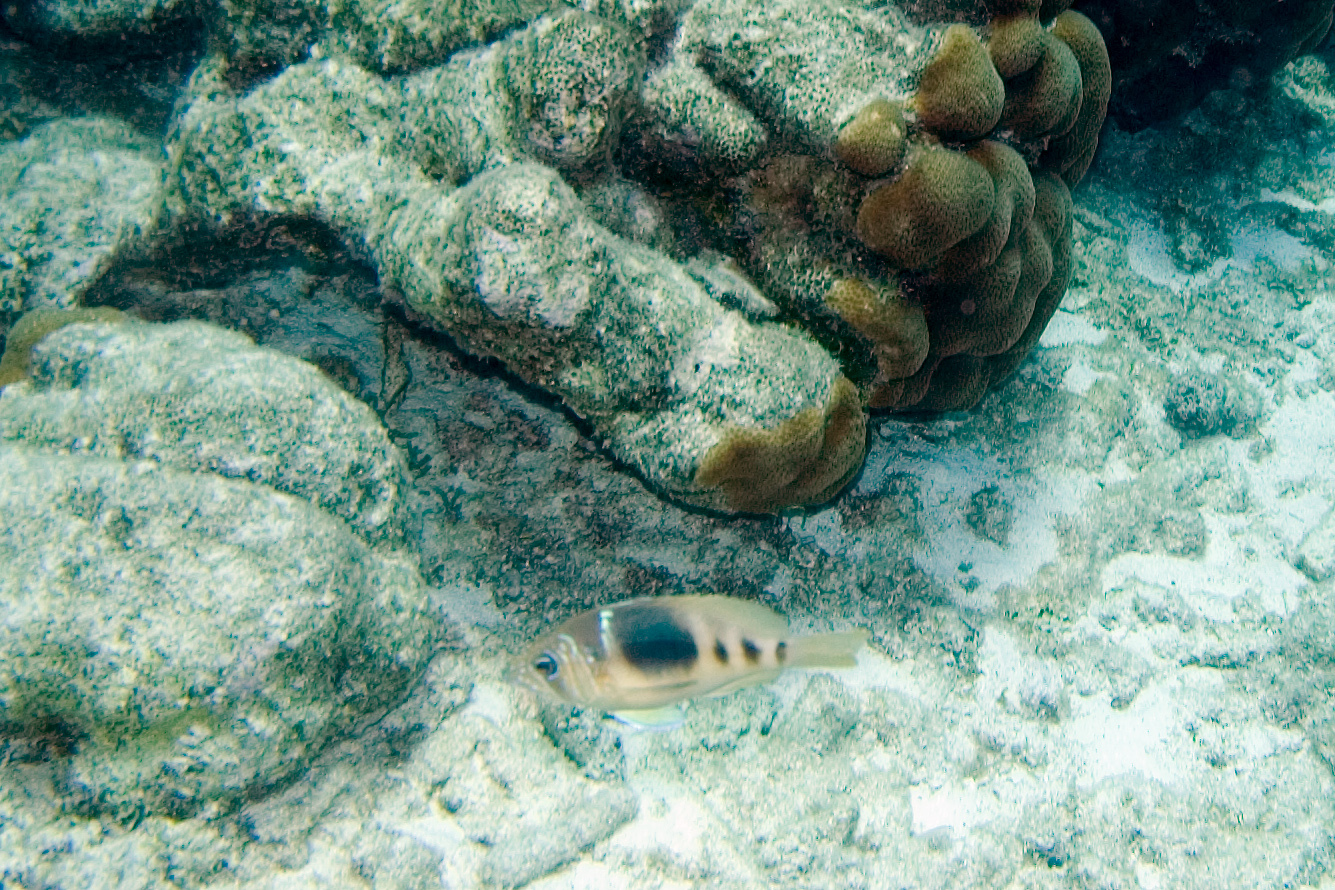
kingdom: Animalia
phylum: Chordata
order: Perciformes
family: Serranidae
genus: Hypoplectrus
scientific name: Hypoplectrus puella
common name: Barred hamlet
